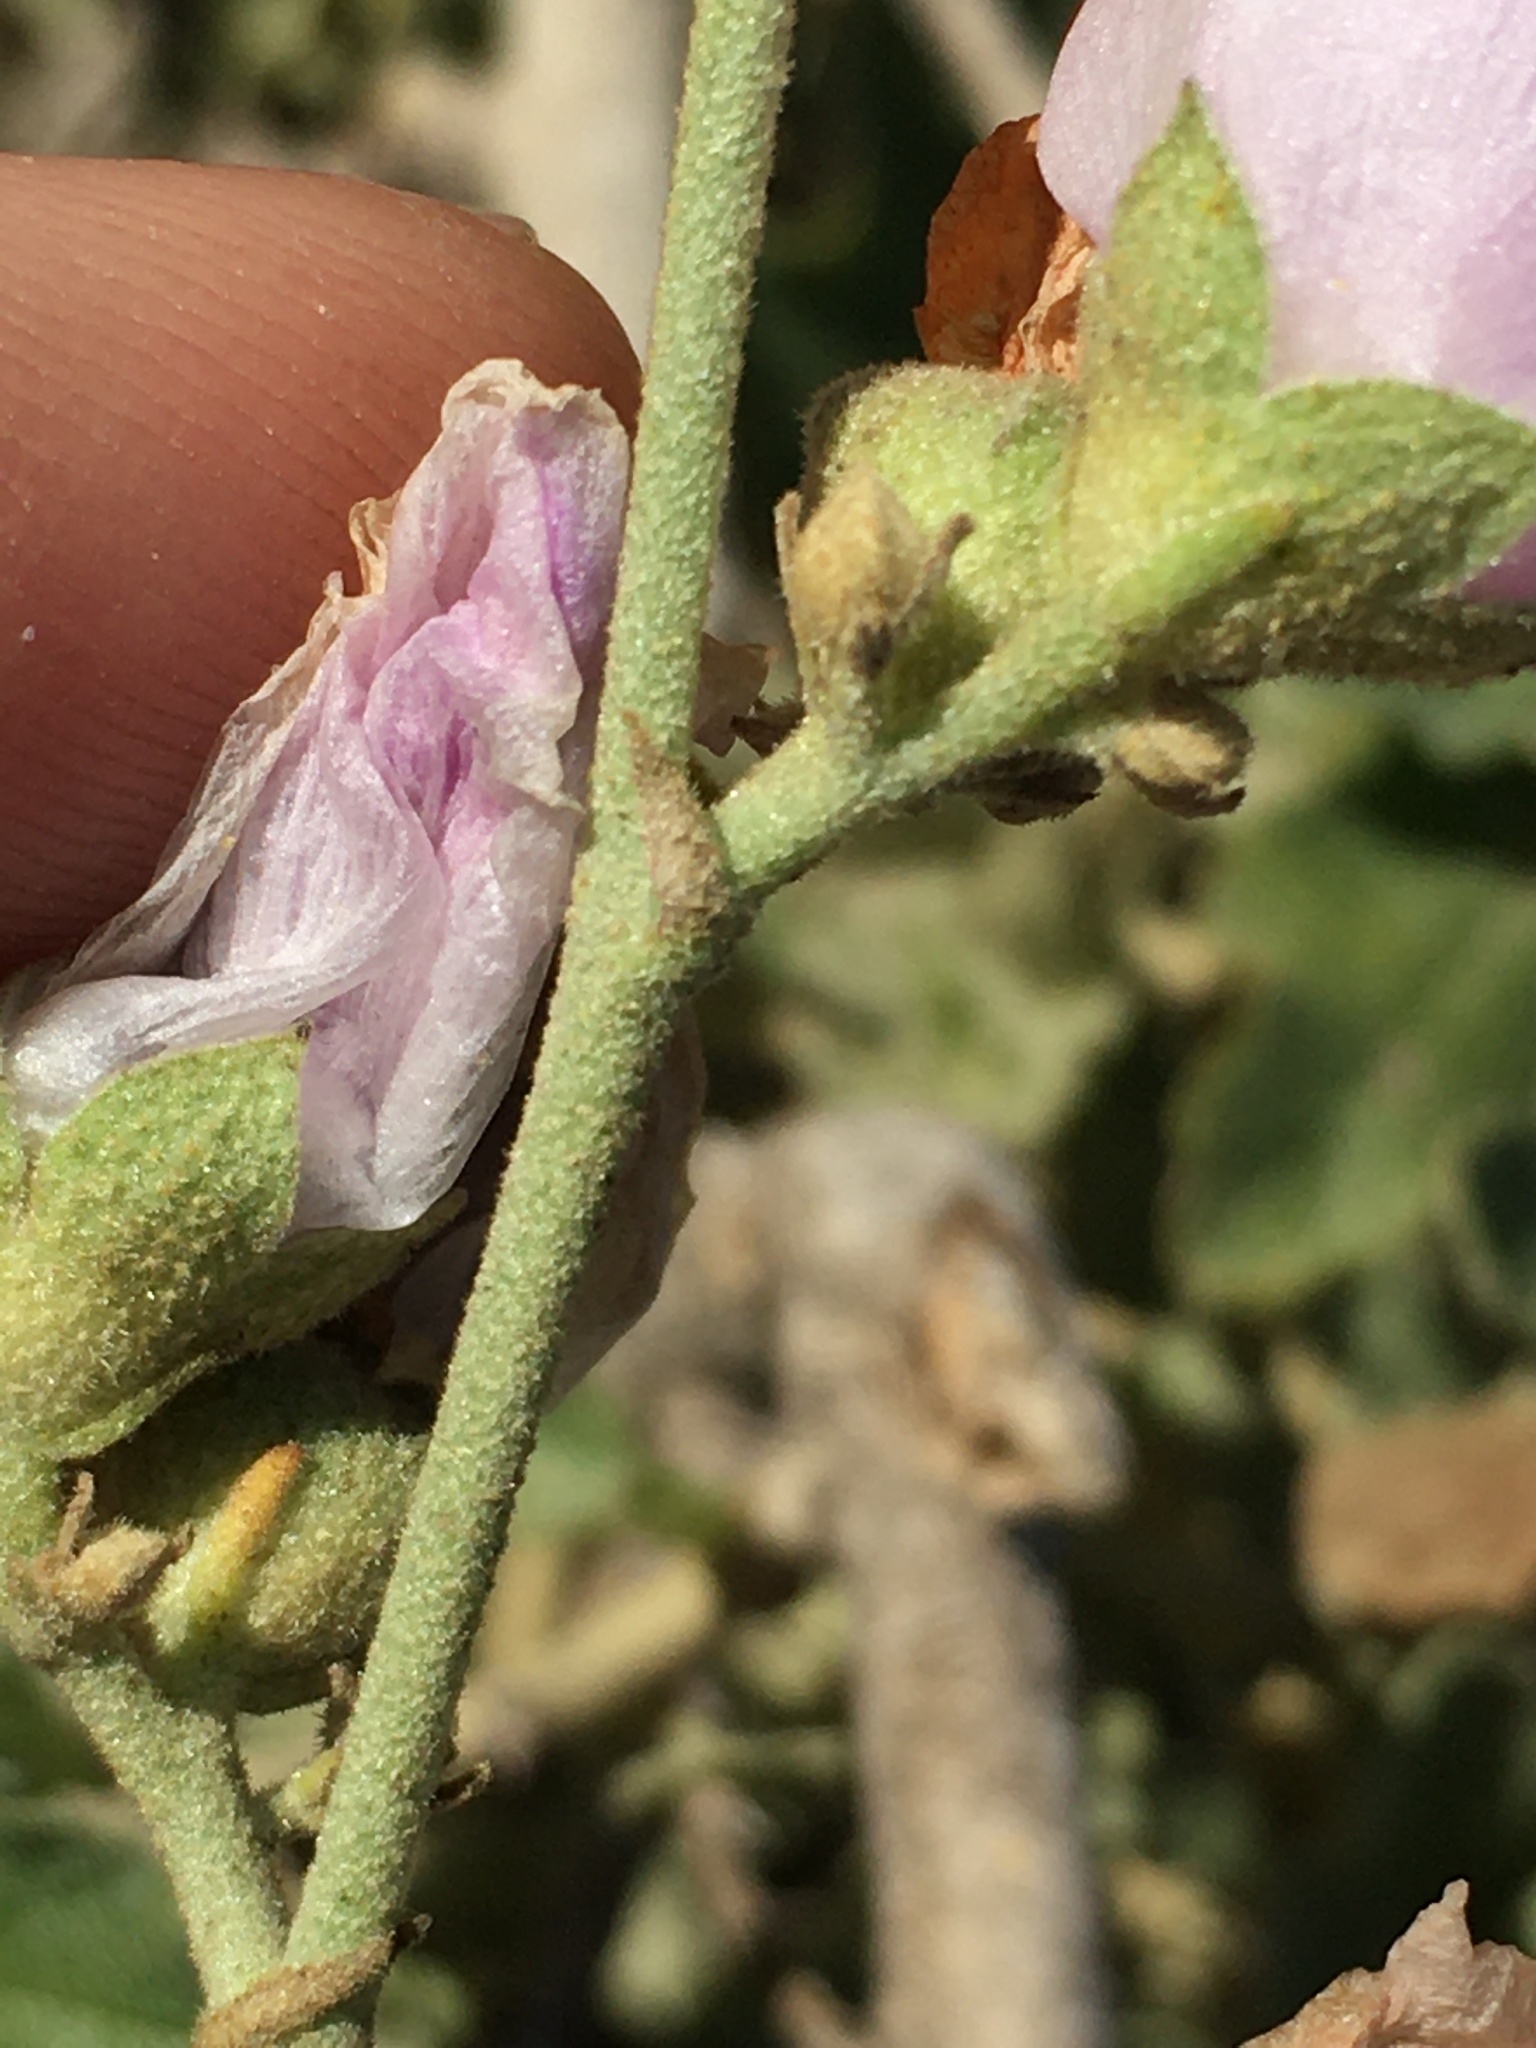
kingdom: Plantae
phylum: Tracheophyta
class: Magnoliopsida
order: Malvales
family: Malvaceae
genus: Malacothamnus
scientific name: Malacothamnus fasciculatus
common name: Sant cruz island bush-mallow
